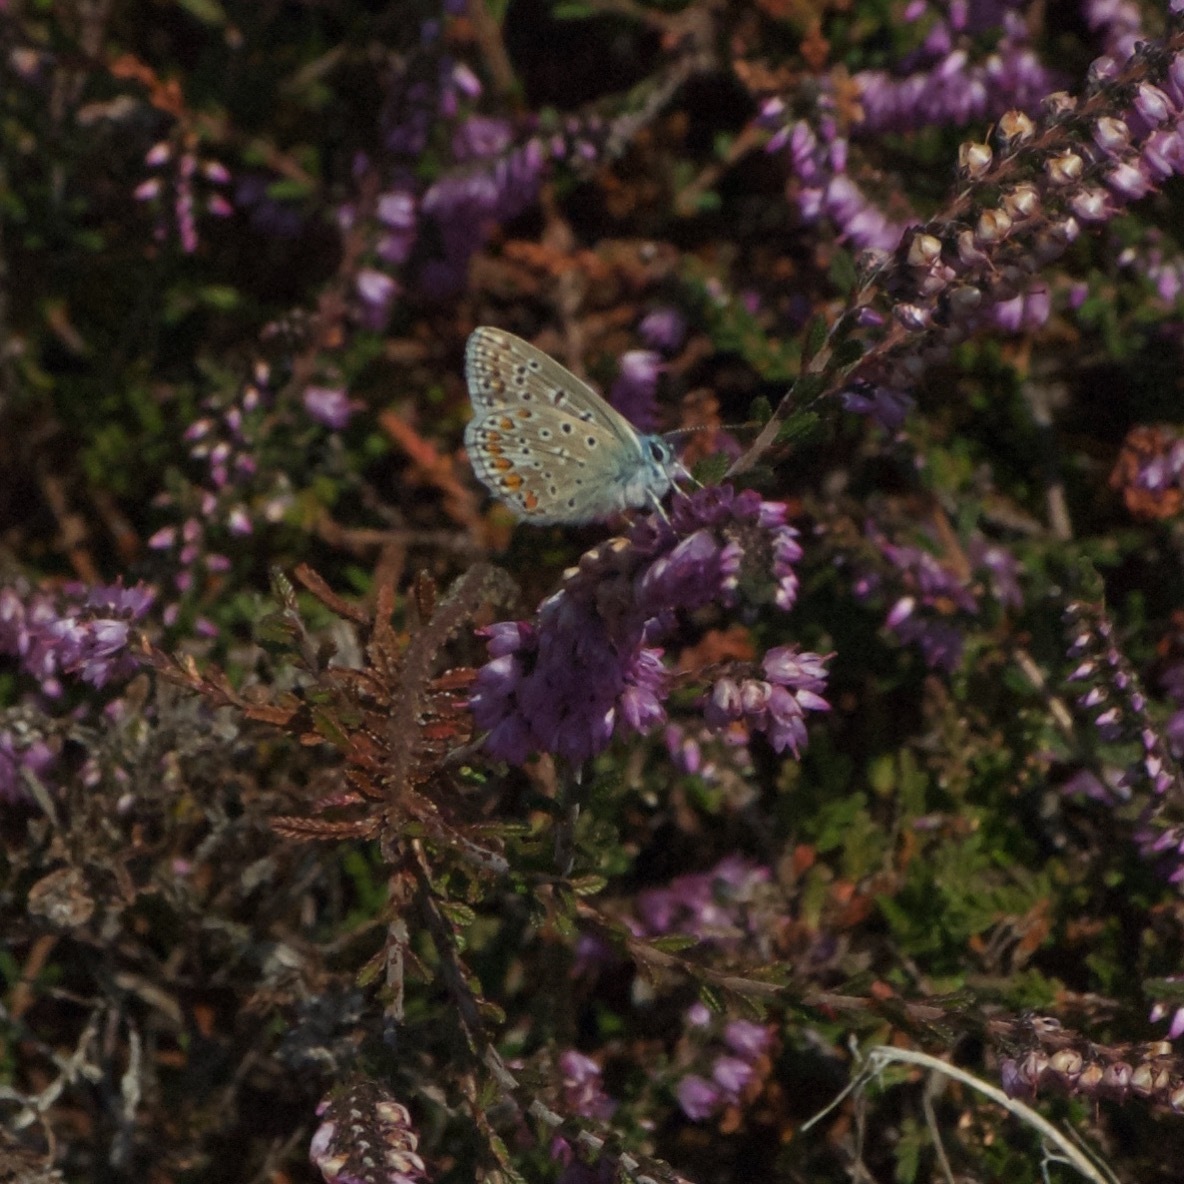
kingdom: Animalia
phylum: Arthropoda
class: Insecta
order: Lepidoptera
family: Lycaenidae
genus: Polyommatus
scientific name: Polyommatus icarus
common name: Common blue
